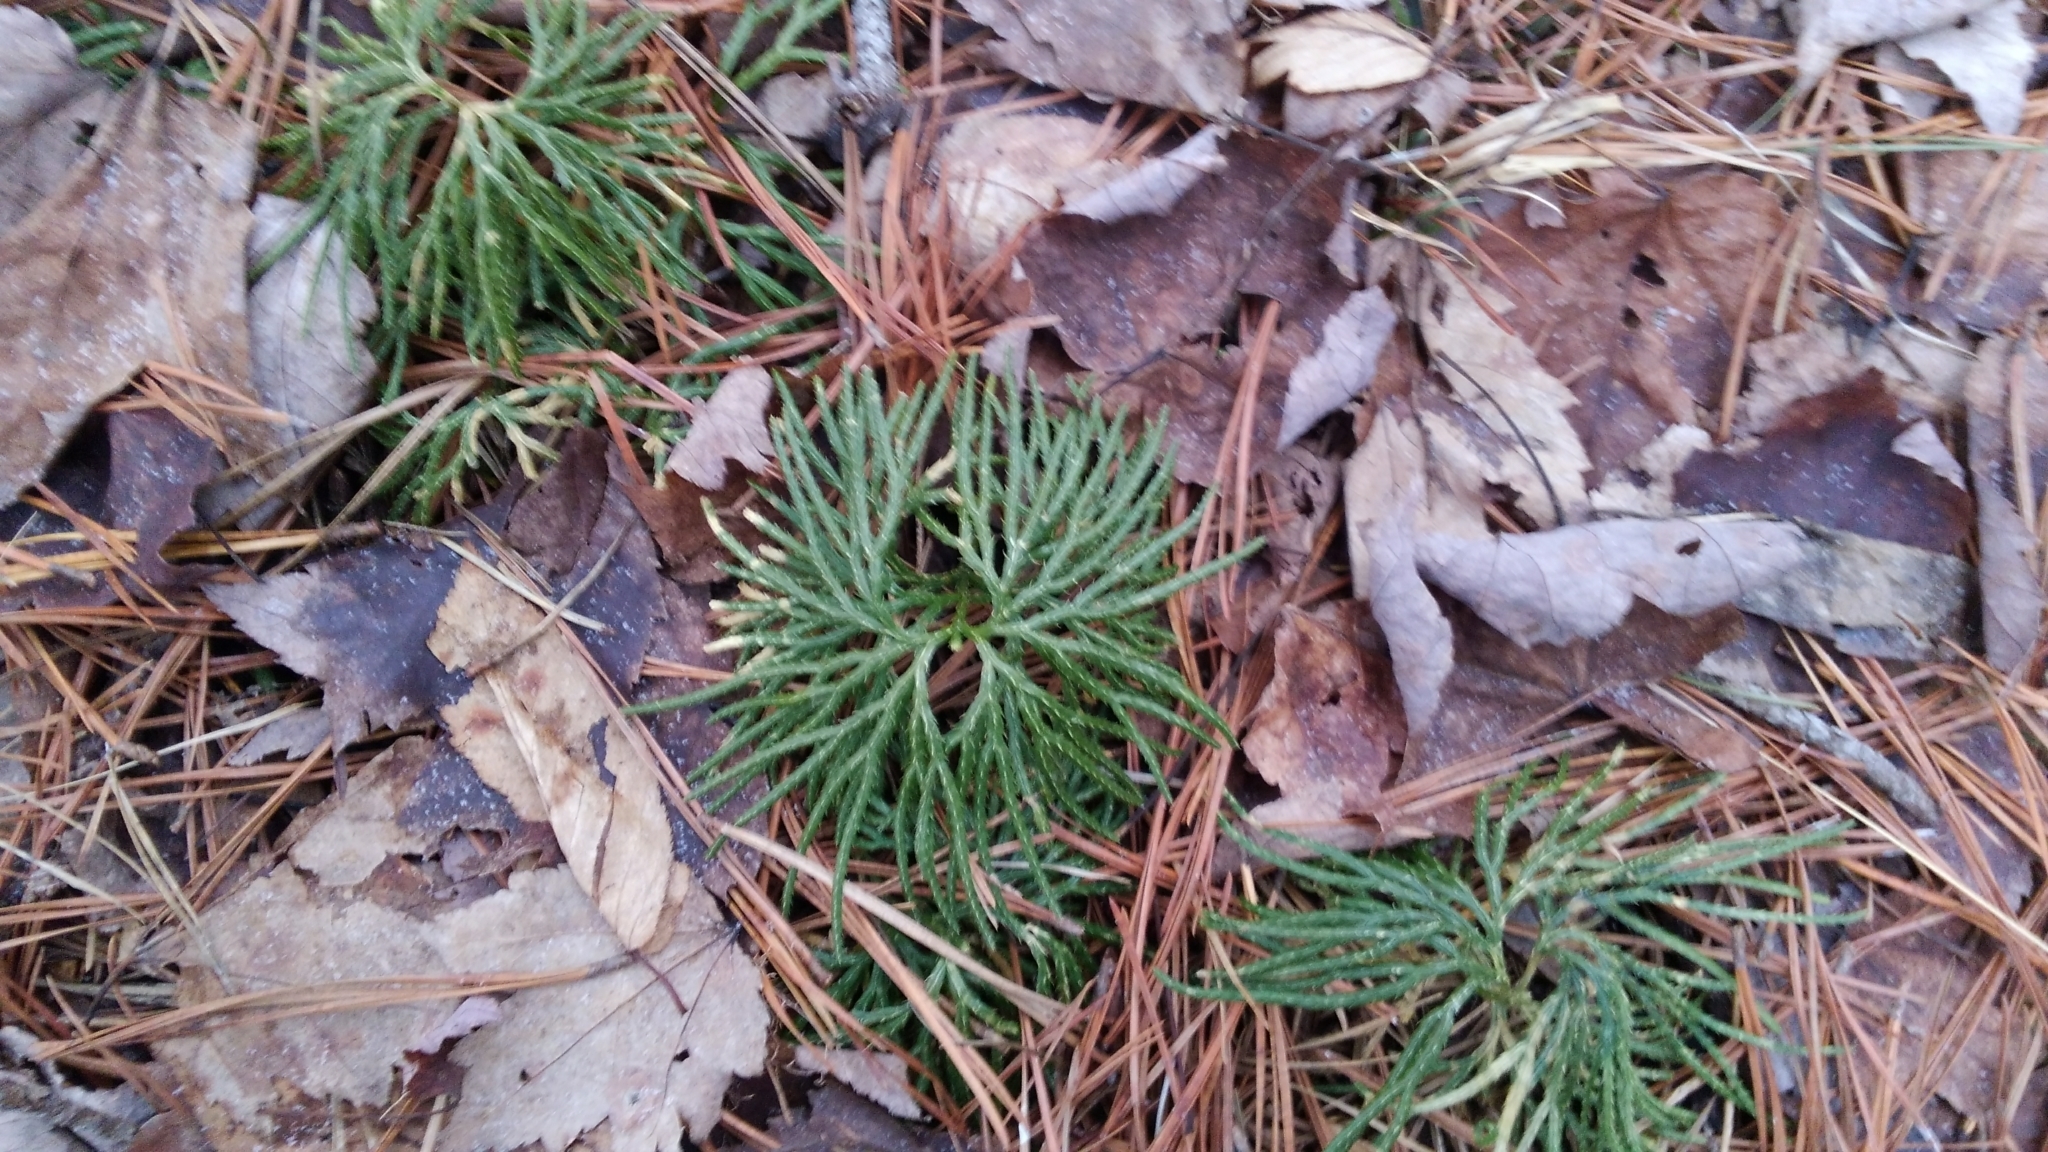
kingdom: Plantae
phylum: Tracheophyta
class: Lycopodiopsida
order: Lycopodiales
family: Lycopodiaceae
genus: Diphasiastrum
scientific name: Diphasiastrum digitatum
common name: Southern running-pine
